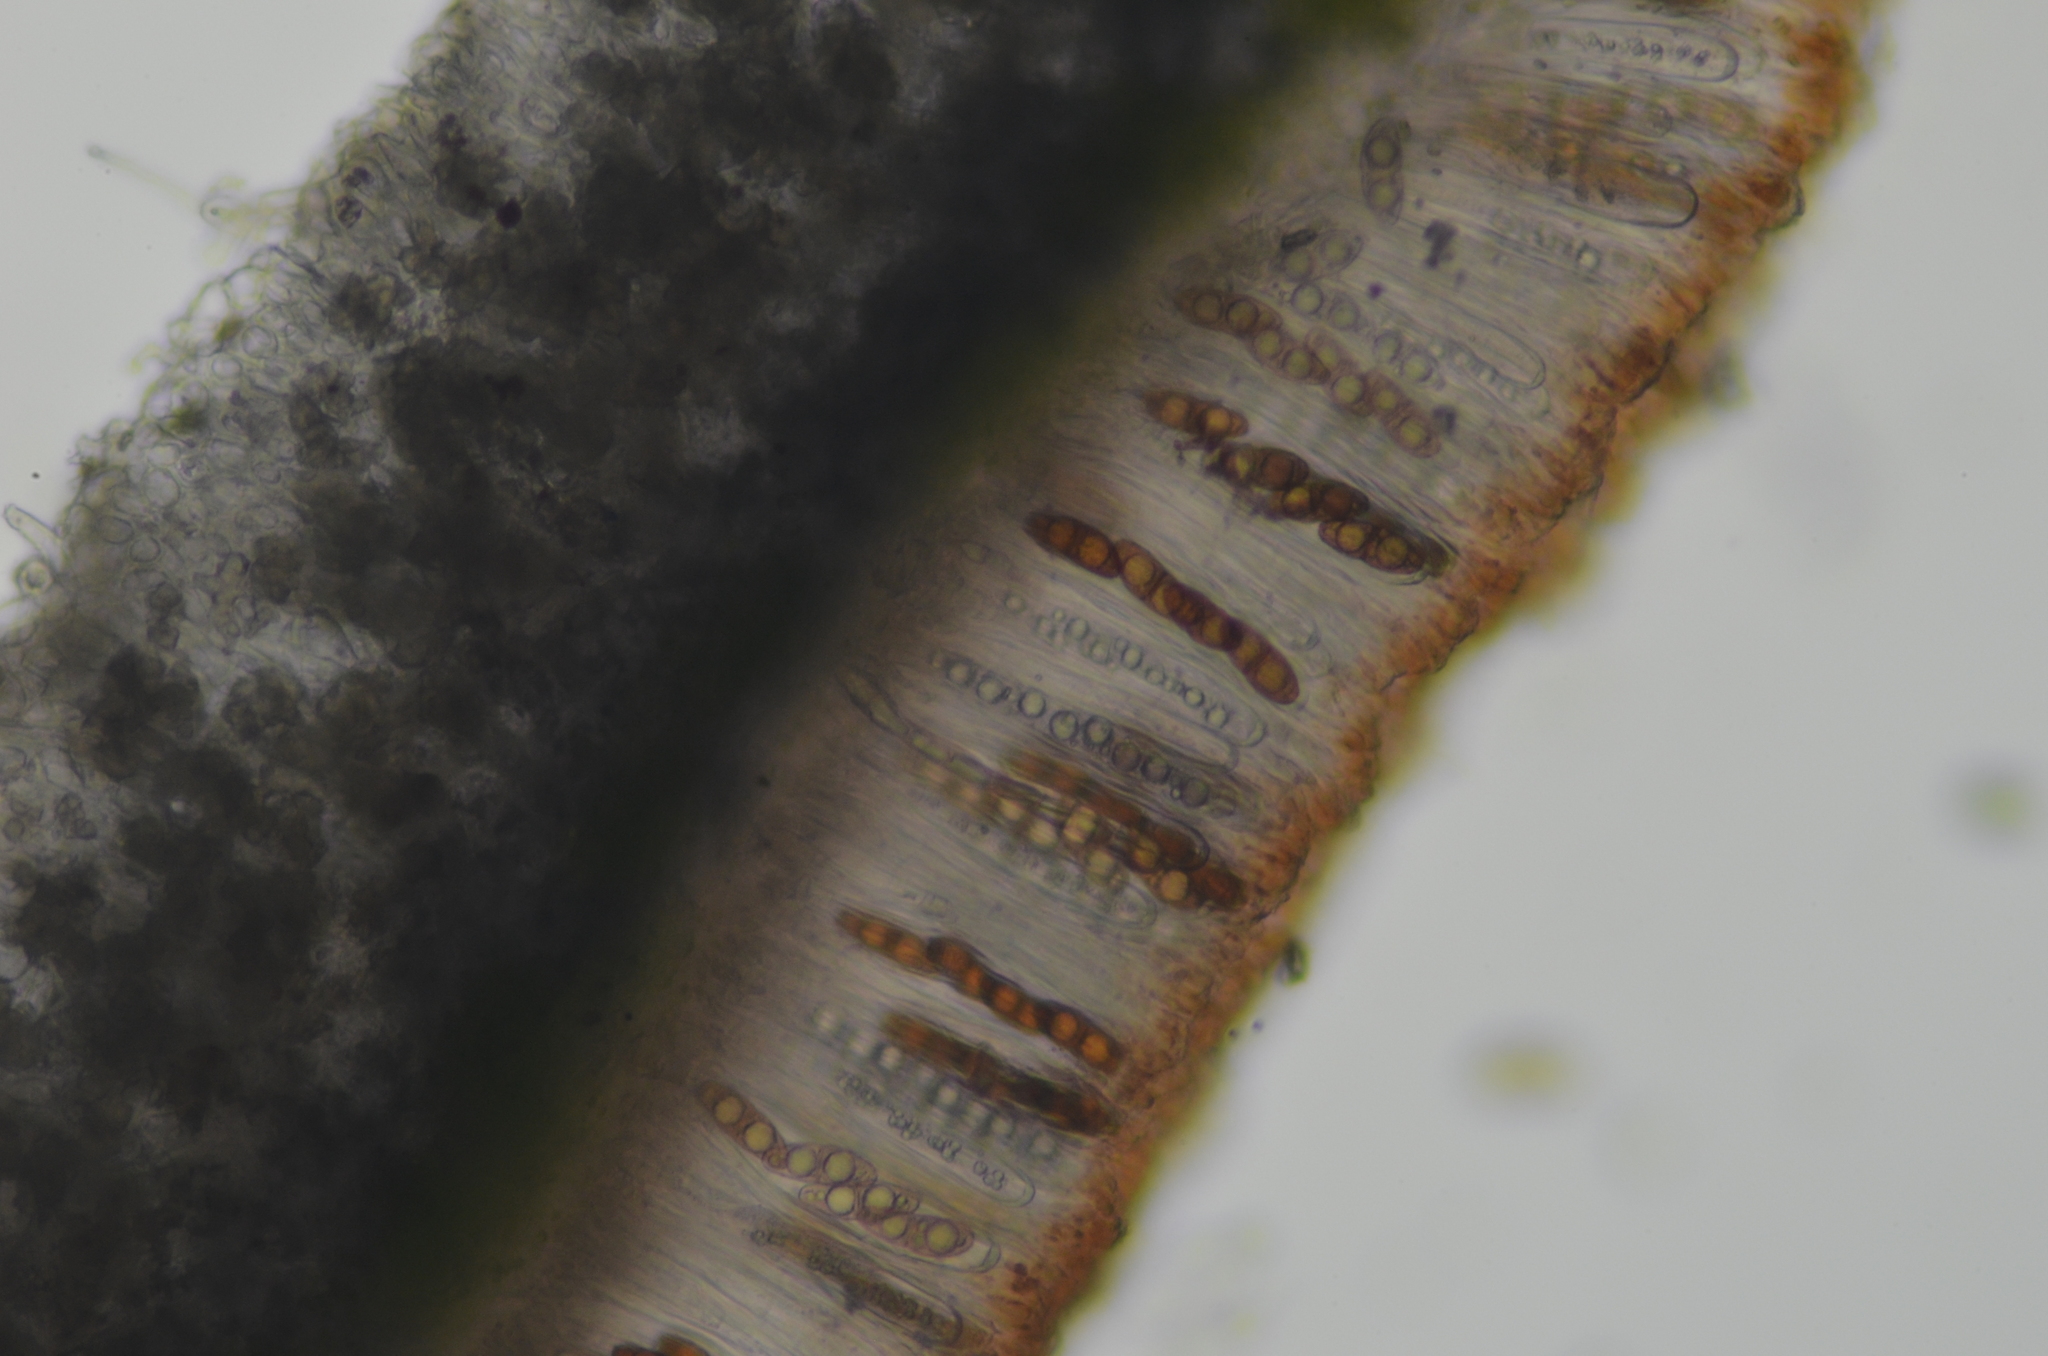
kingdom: Fungi
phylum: Ascomycota
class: Lecanoromycetes
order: Peltigerales
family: Peltigeraceae
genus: Solorina
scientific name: Solorina spongiosa
